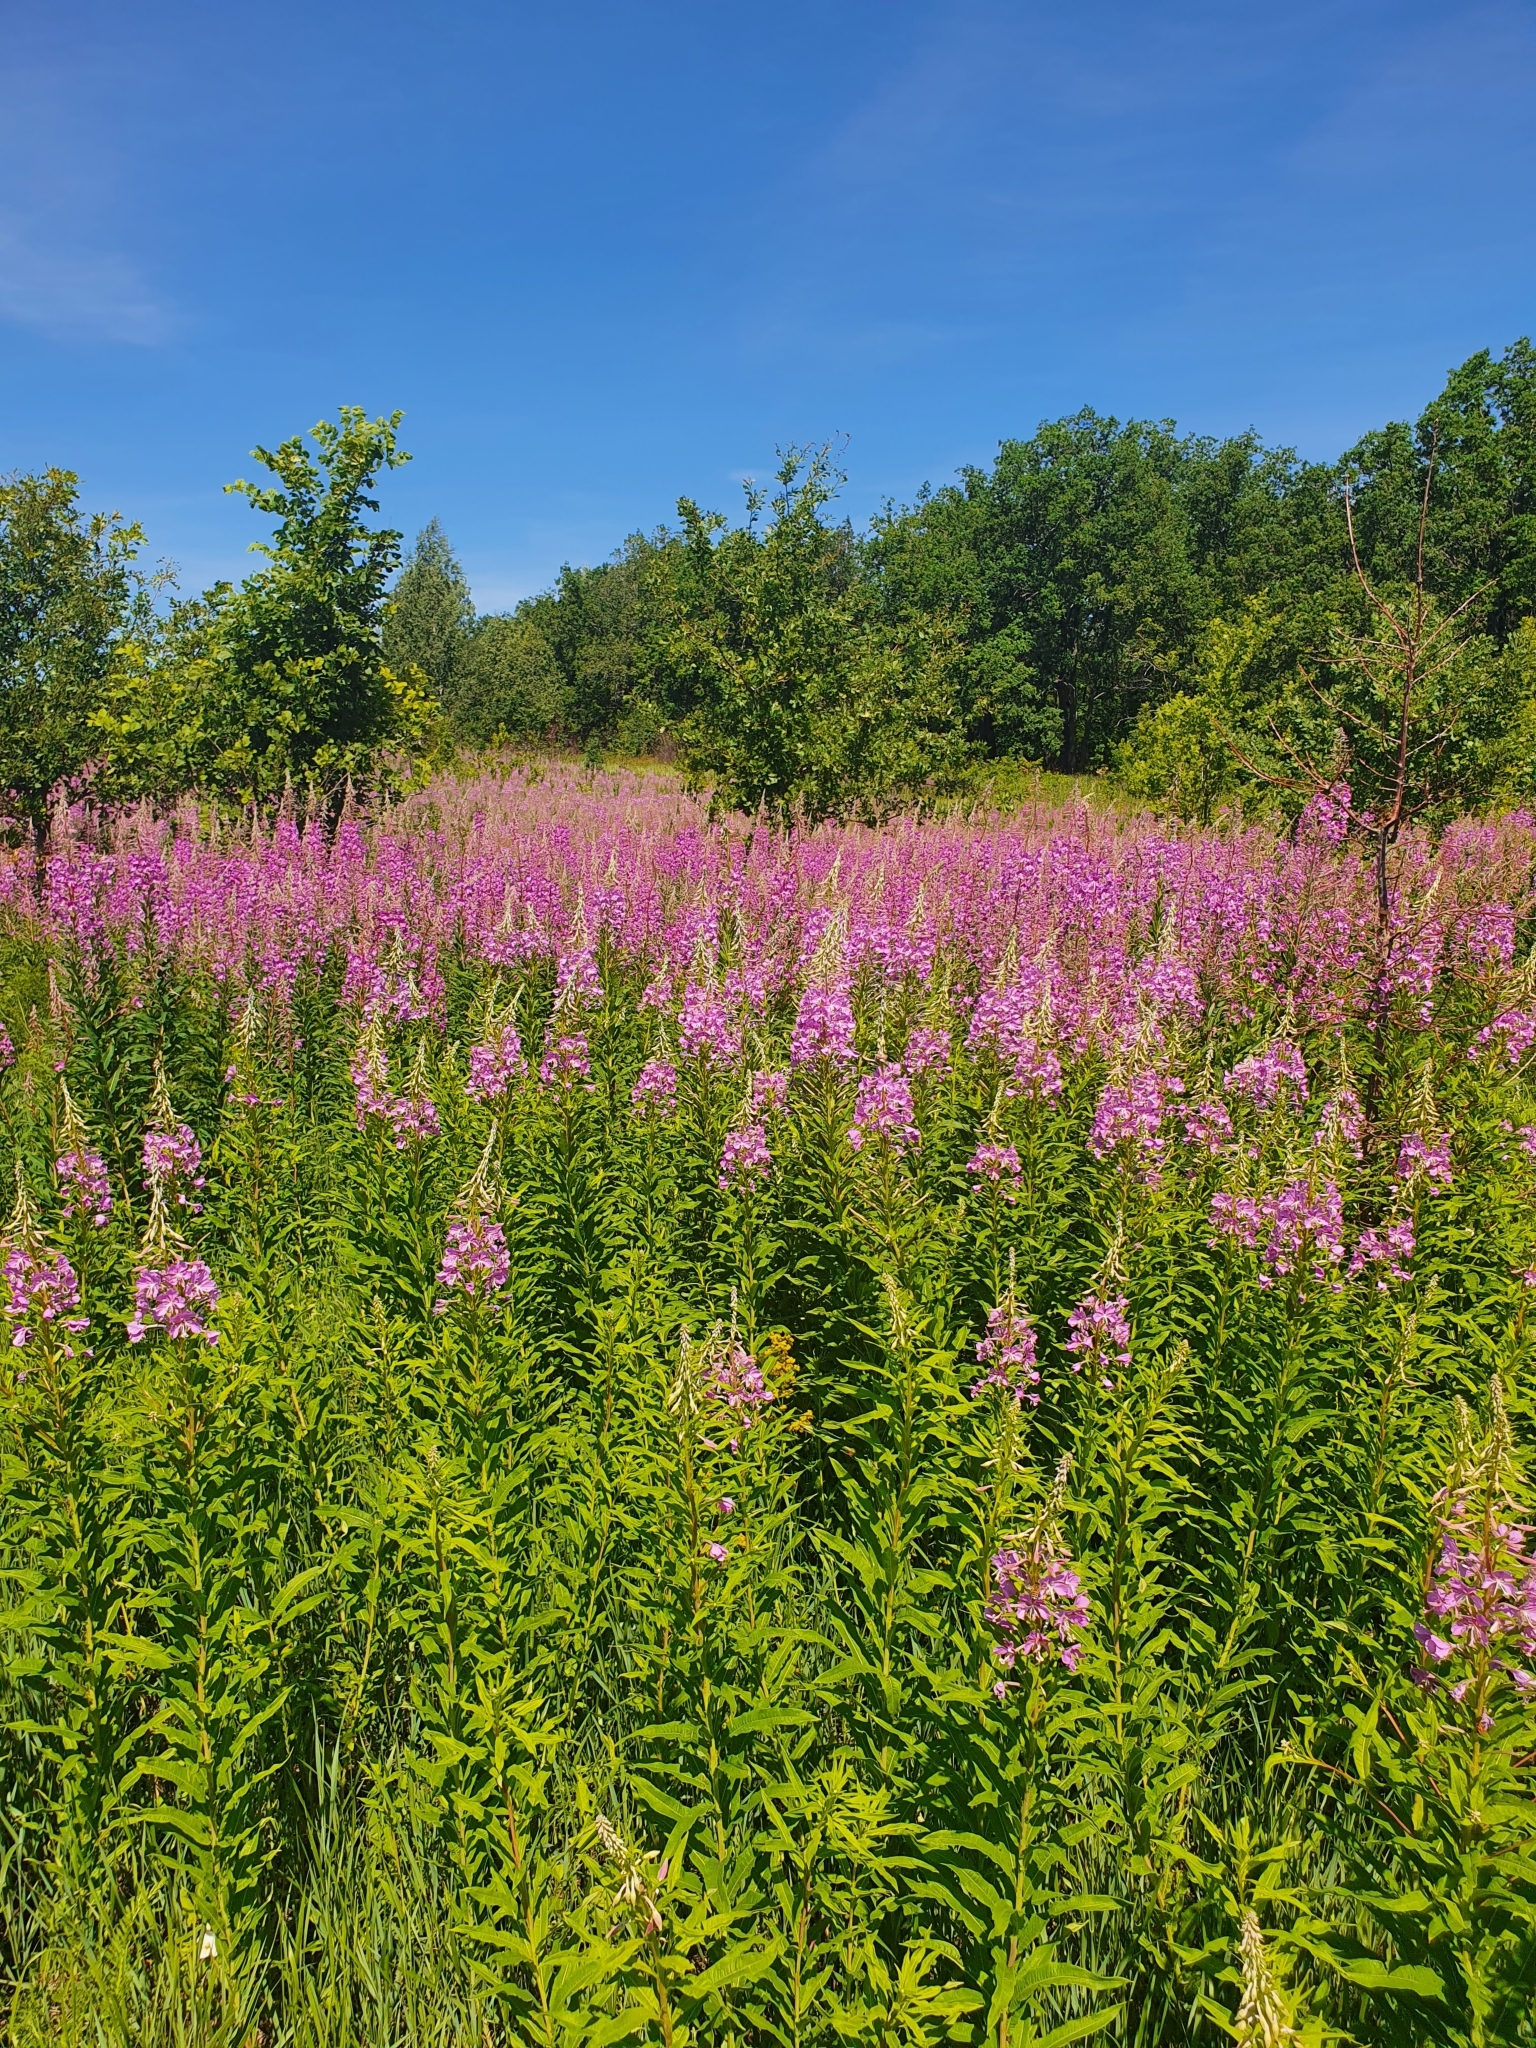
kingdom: Plantae
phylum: Tracheophyta
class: Magnoliopsida
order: Myrtales
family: Onagraceae
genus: Chamaenerion
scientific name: Chamaenerion angustifolium
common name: Fireweed
